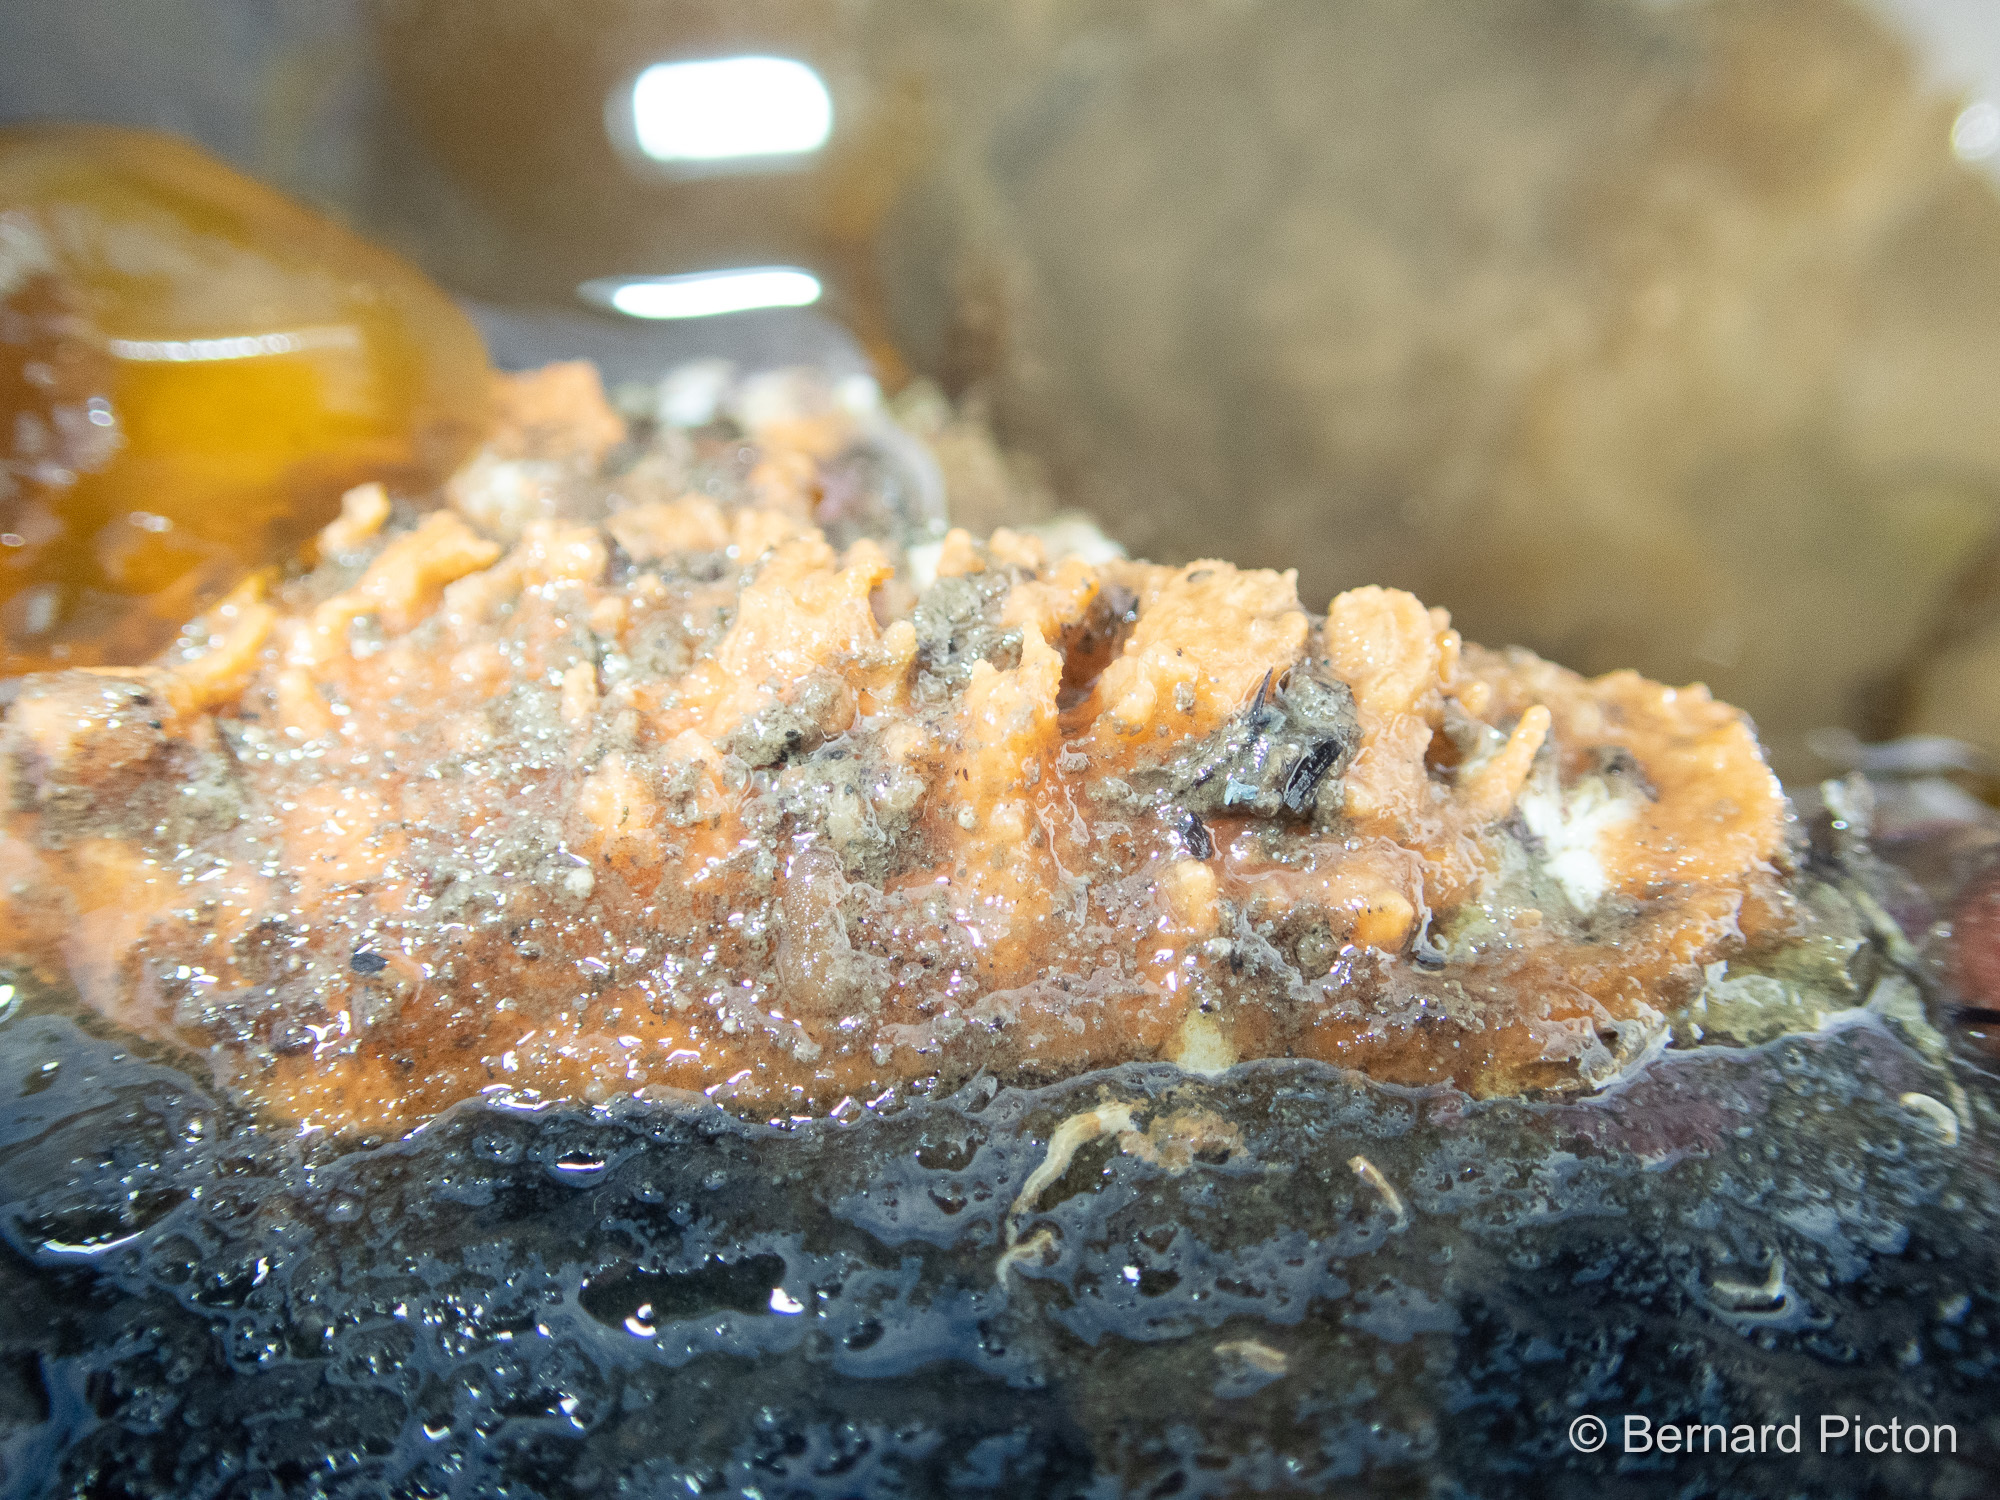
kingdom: Animalia
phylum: Porifera
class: Demospongiae
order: Suberitida
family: Halichondriidae
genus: Hymeniacidon
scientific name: Hymeniacidon perlevis
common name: Crumb-of-bread sponge
